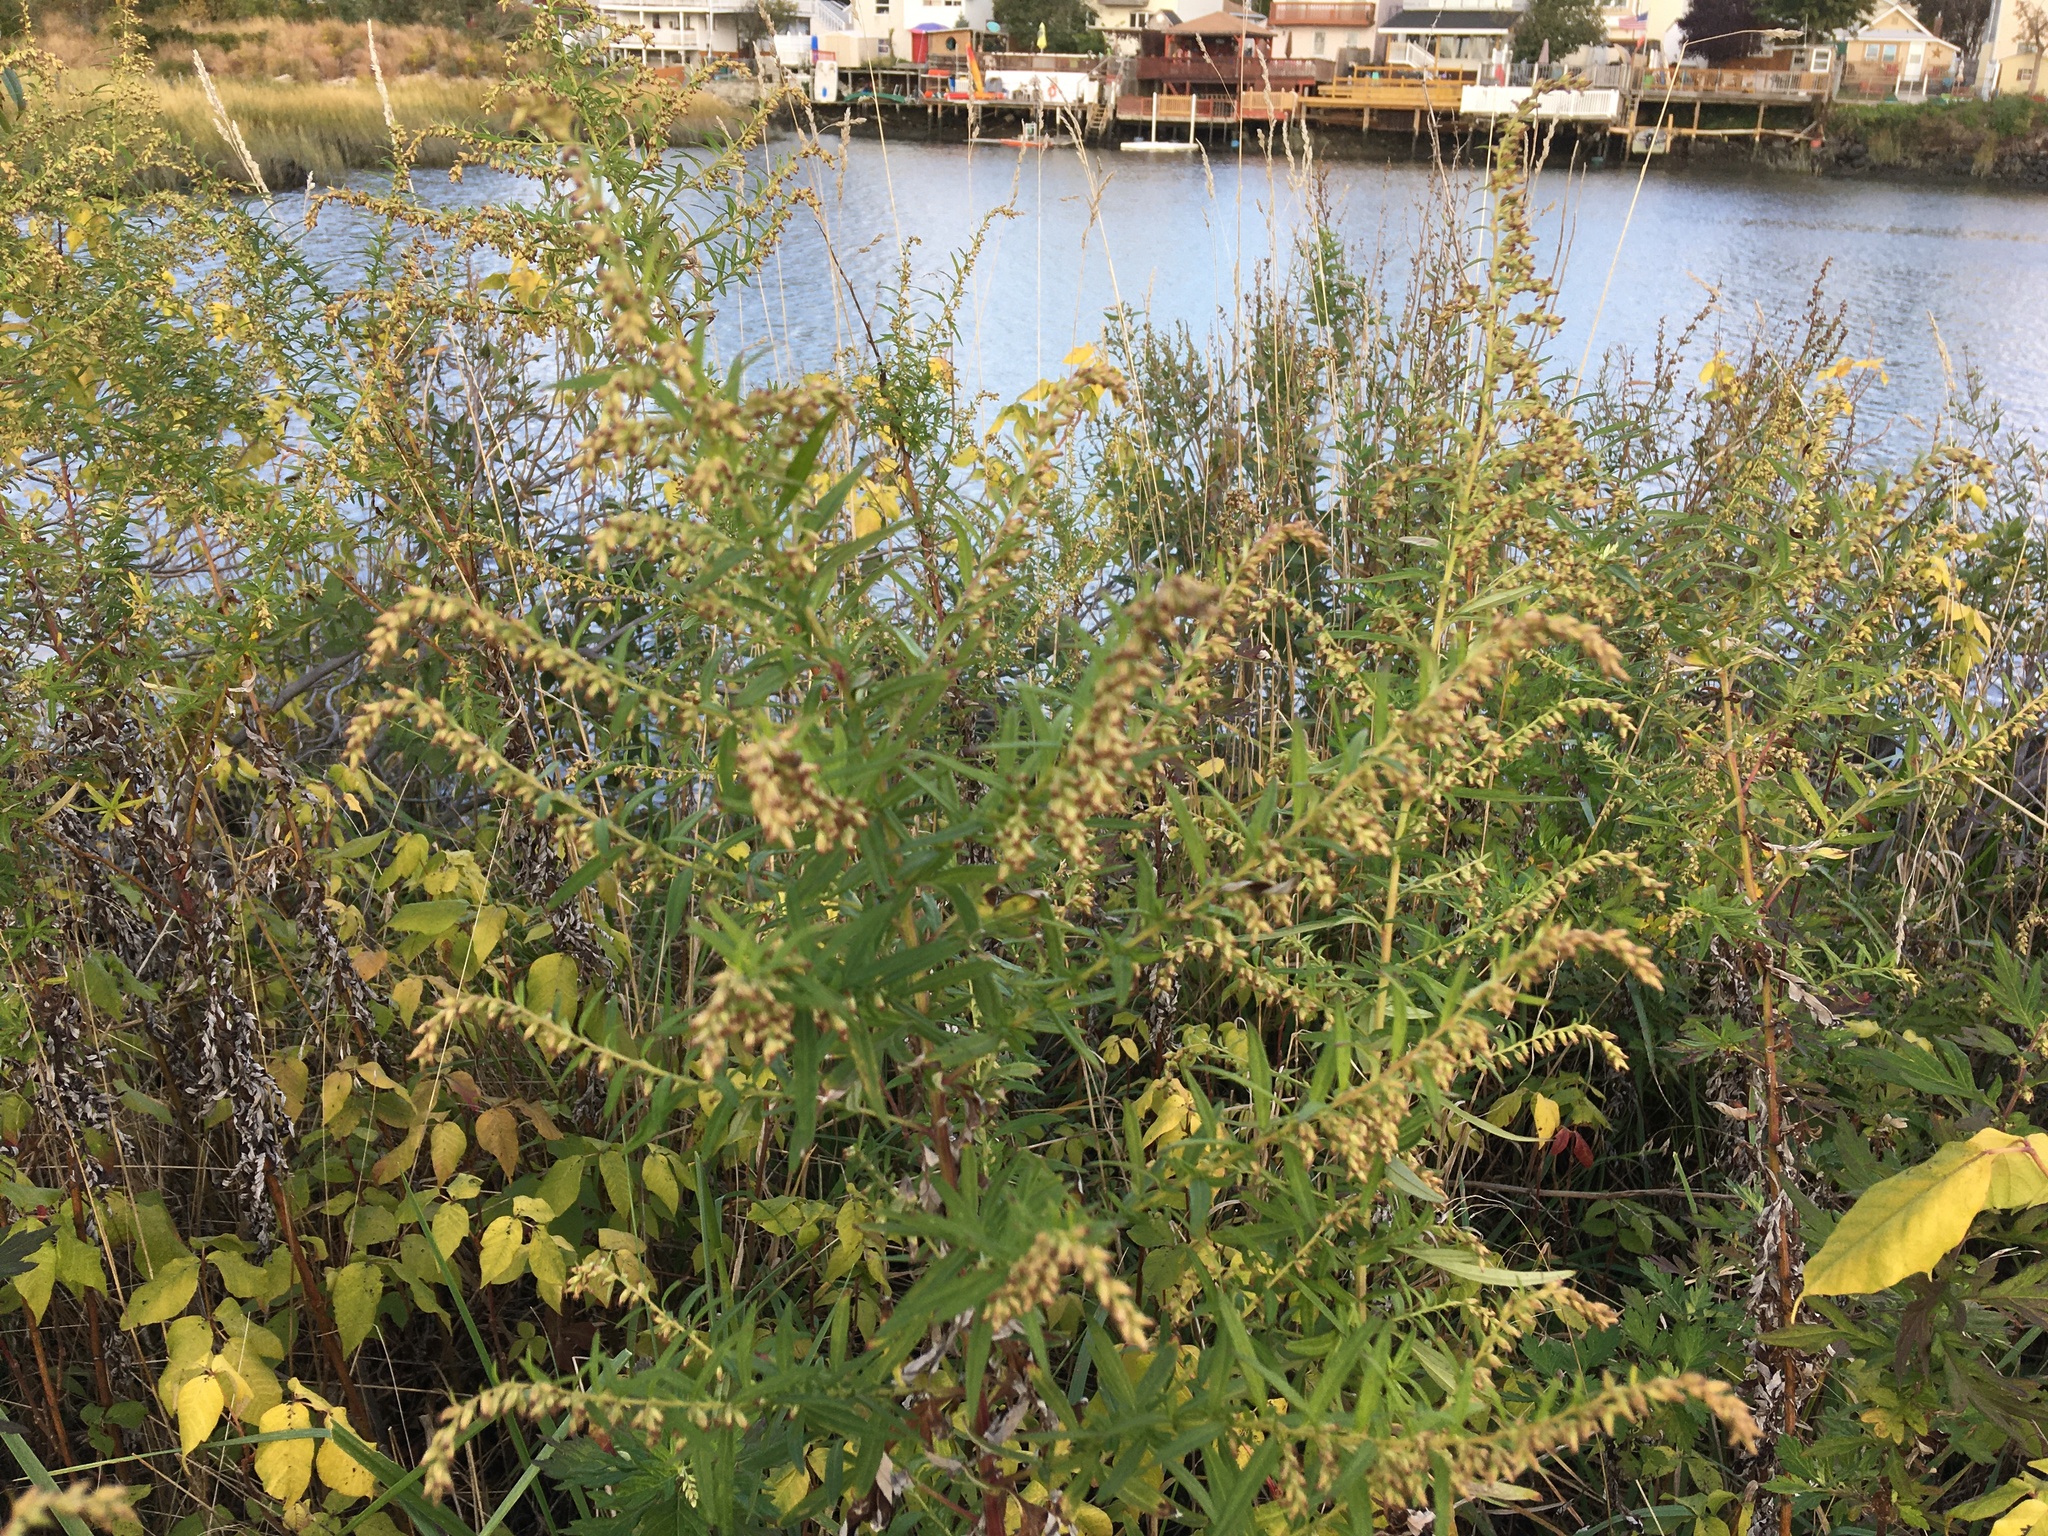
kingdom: Plantae
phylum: Tracheophyta
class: Magnoliopsida
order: Asterales
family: Asteraceae
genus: Artemisia
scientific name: Artemisia vulgaris
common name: Mugwort
